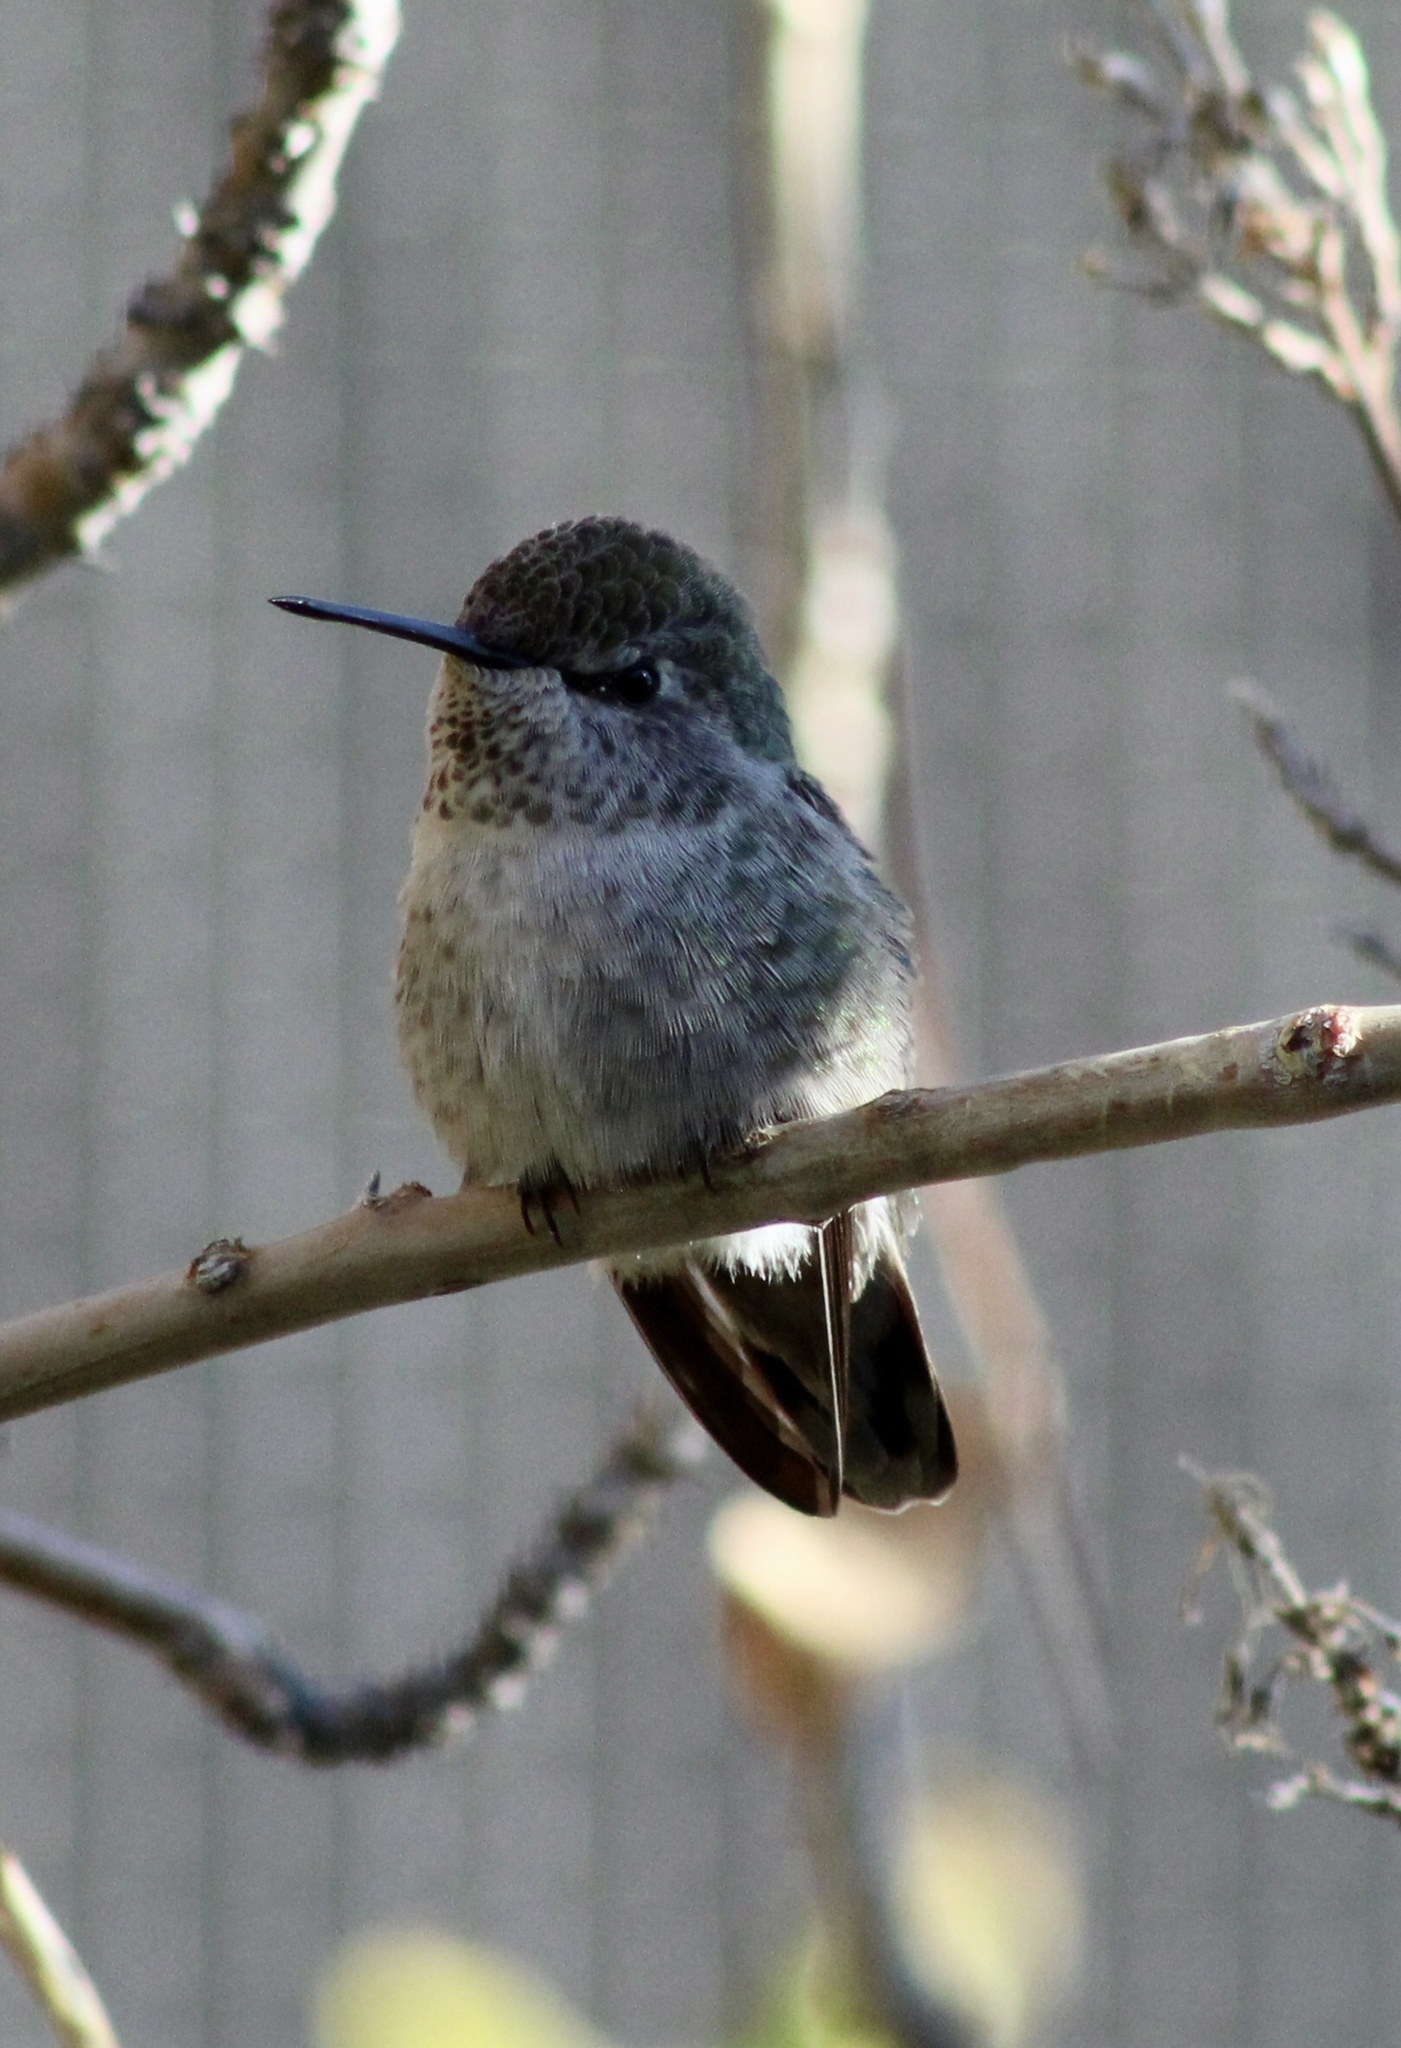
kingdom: Animalia
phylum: Chordata
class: Aves
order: Apodiformes
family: Trochilidae
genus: Calypte
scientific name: Calypte anna
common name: Anna's hummingbird
